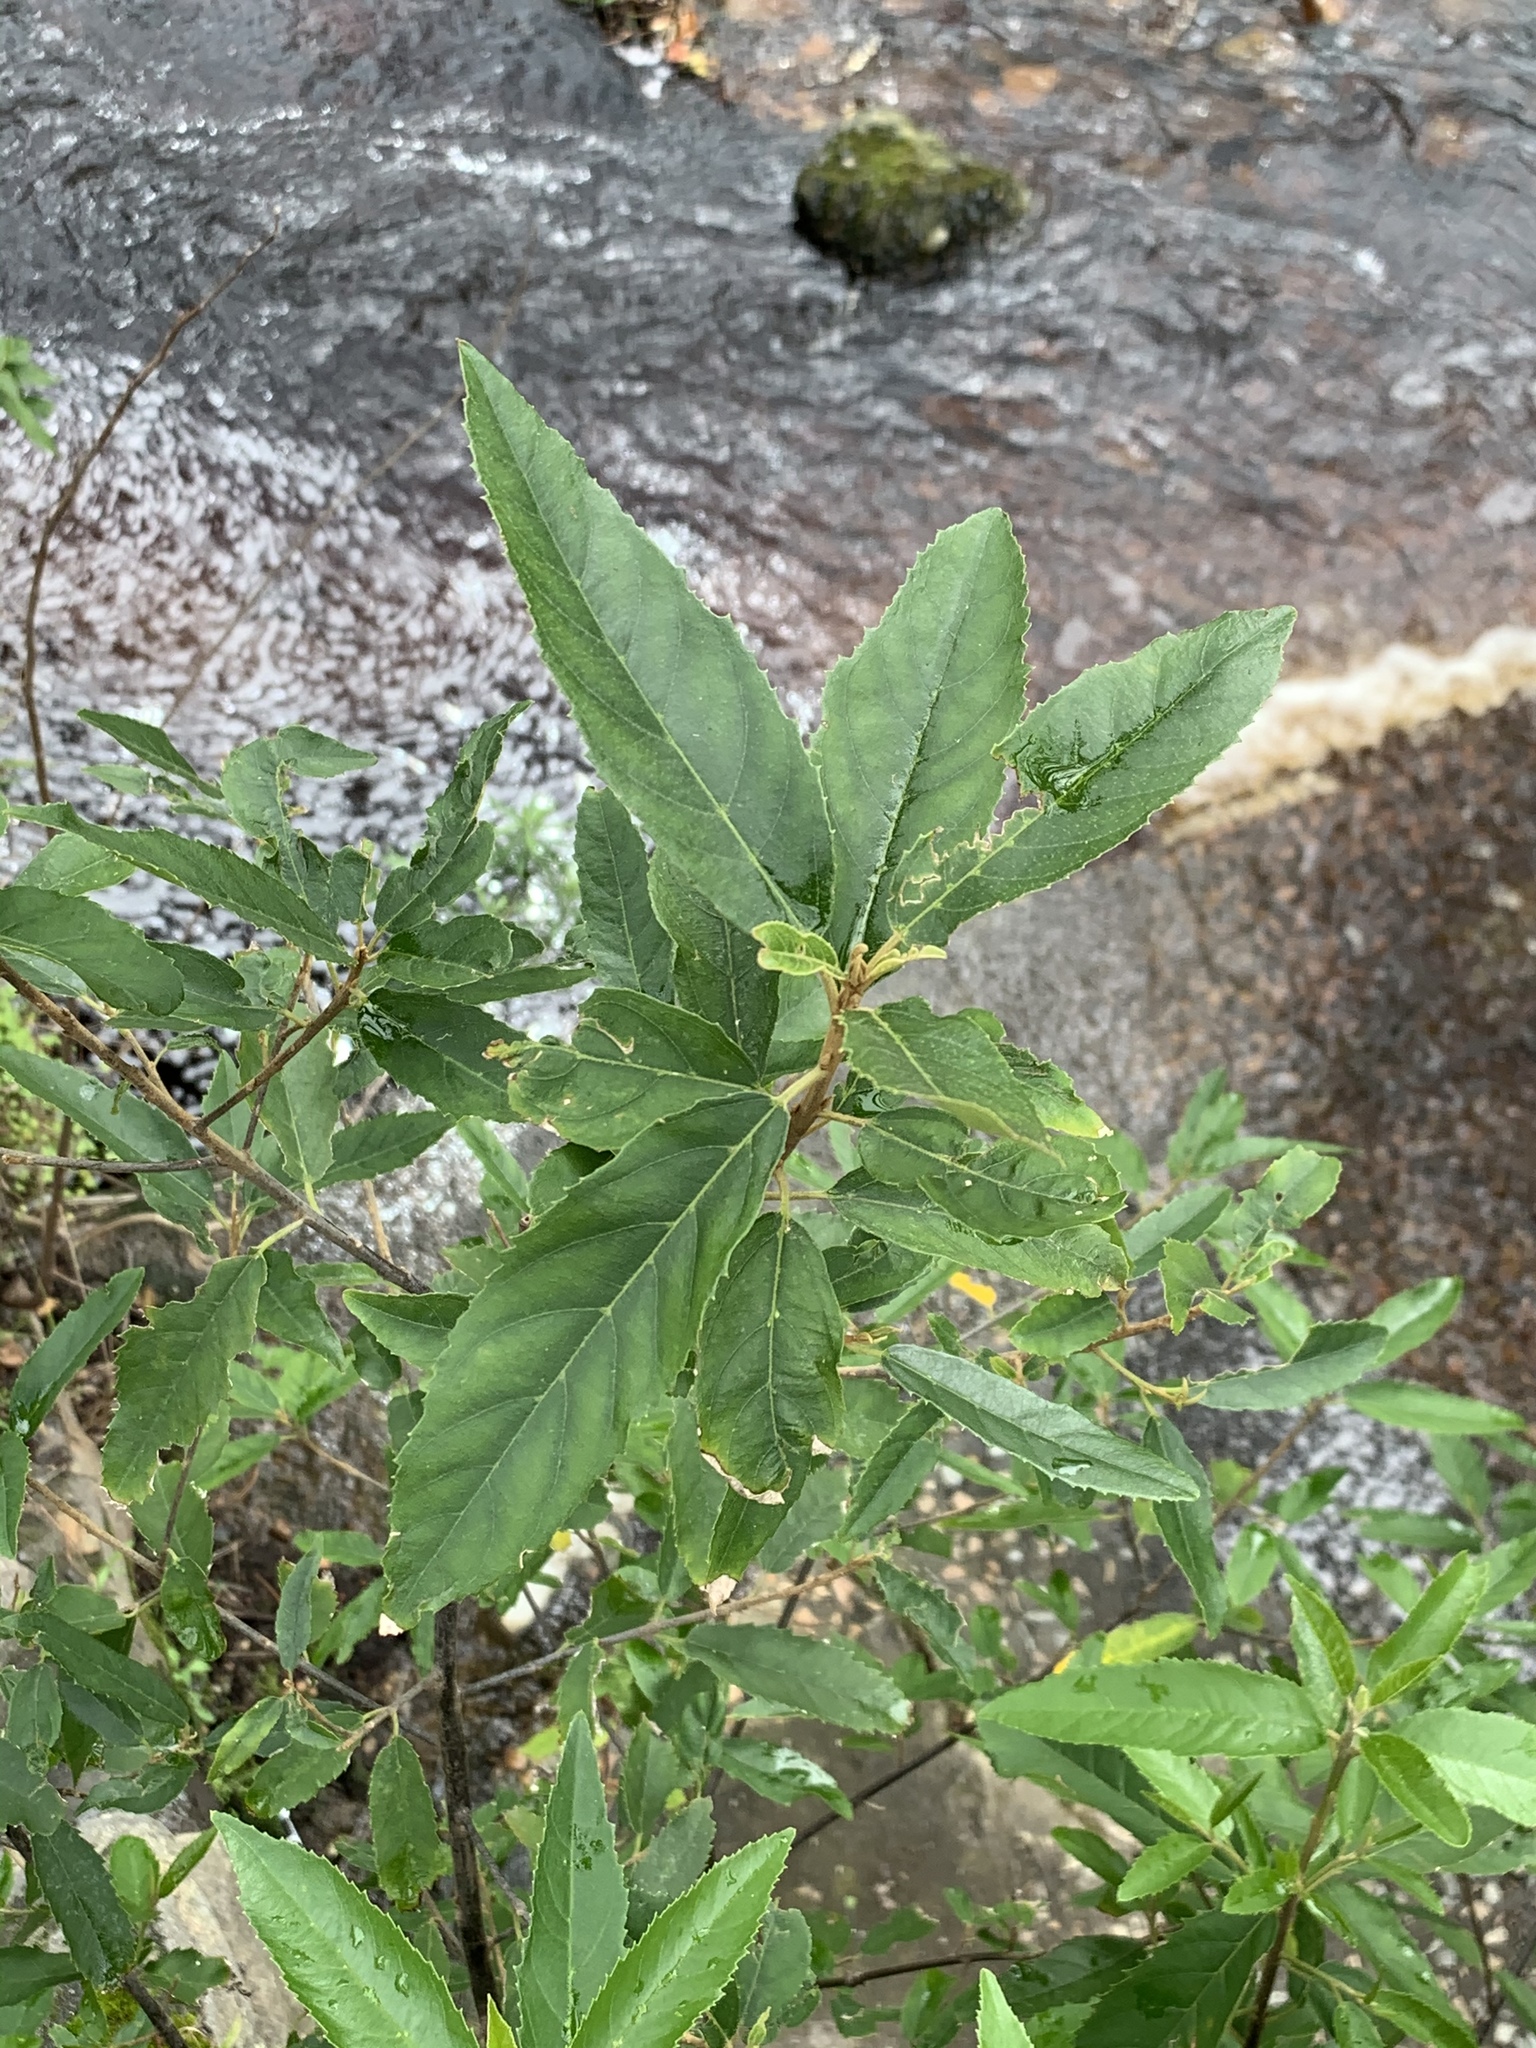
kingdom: Plantae
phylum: Tracheophyta
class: Magnoliopsida
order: Malpighiales
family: Achariaceae
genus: Kiggelaria
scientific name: Kiggelaria africana
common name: Wild peach
